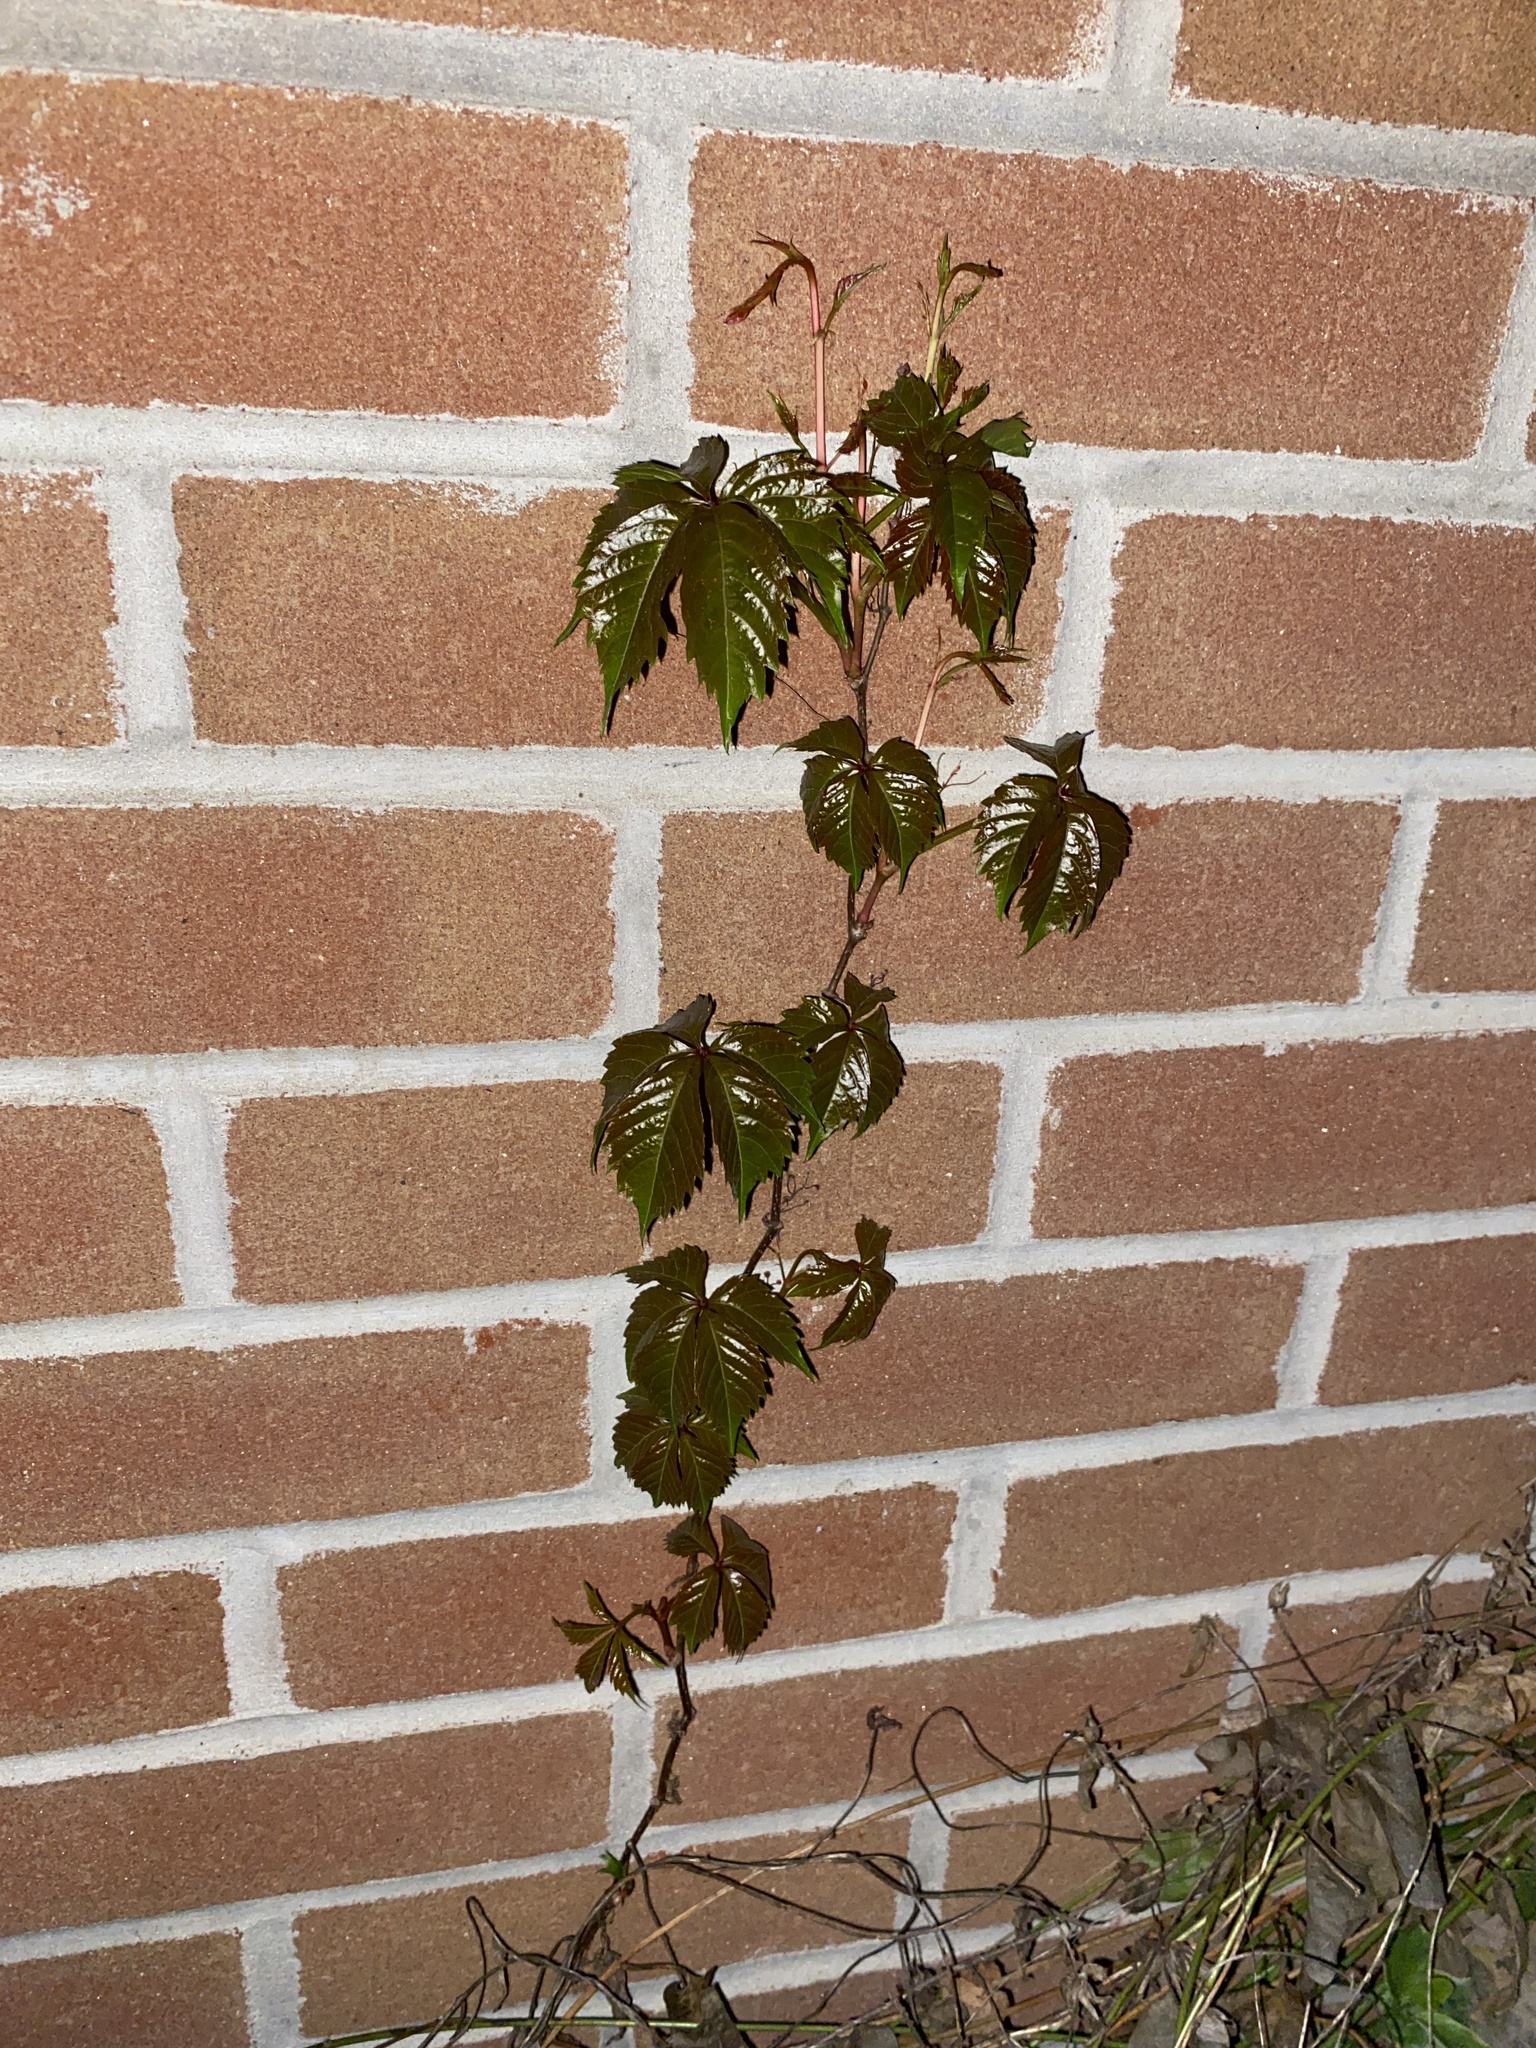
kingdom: Plantae
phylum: Tracheophyta
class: Magnoliopsida
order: Vitales
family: Vitaceae
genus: Parthenocissus
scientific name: Parthenocissus quinquefolia
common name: Virginia-creeper
